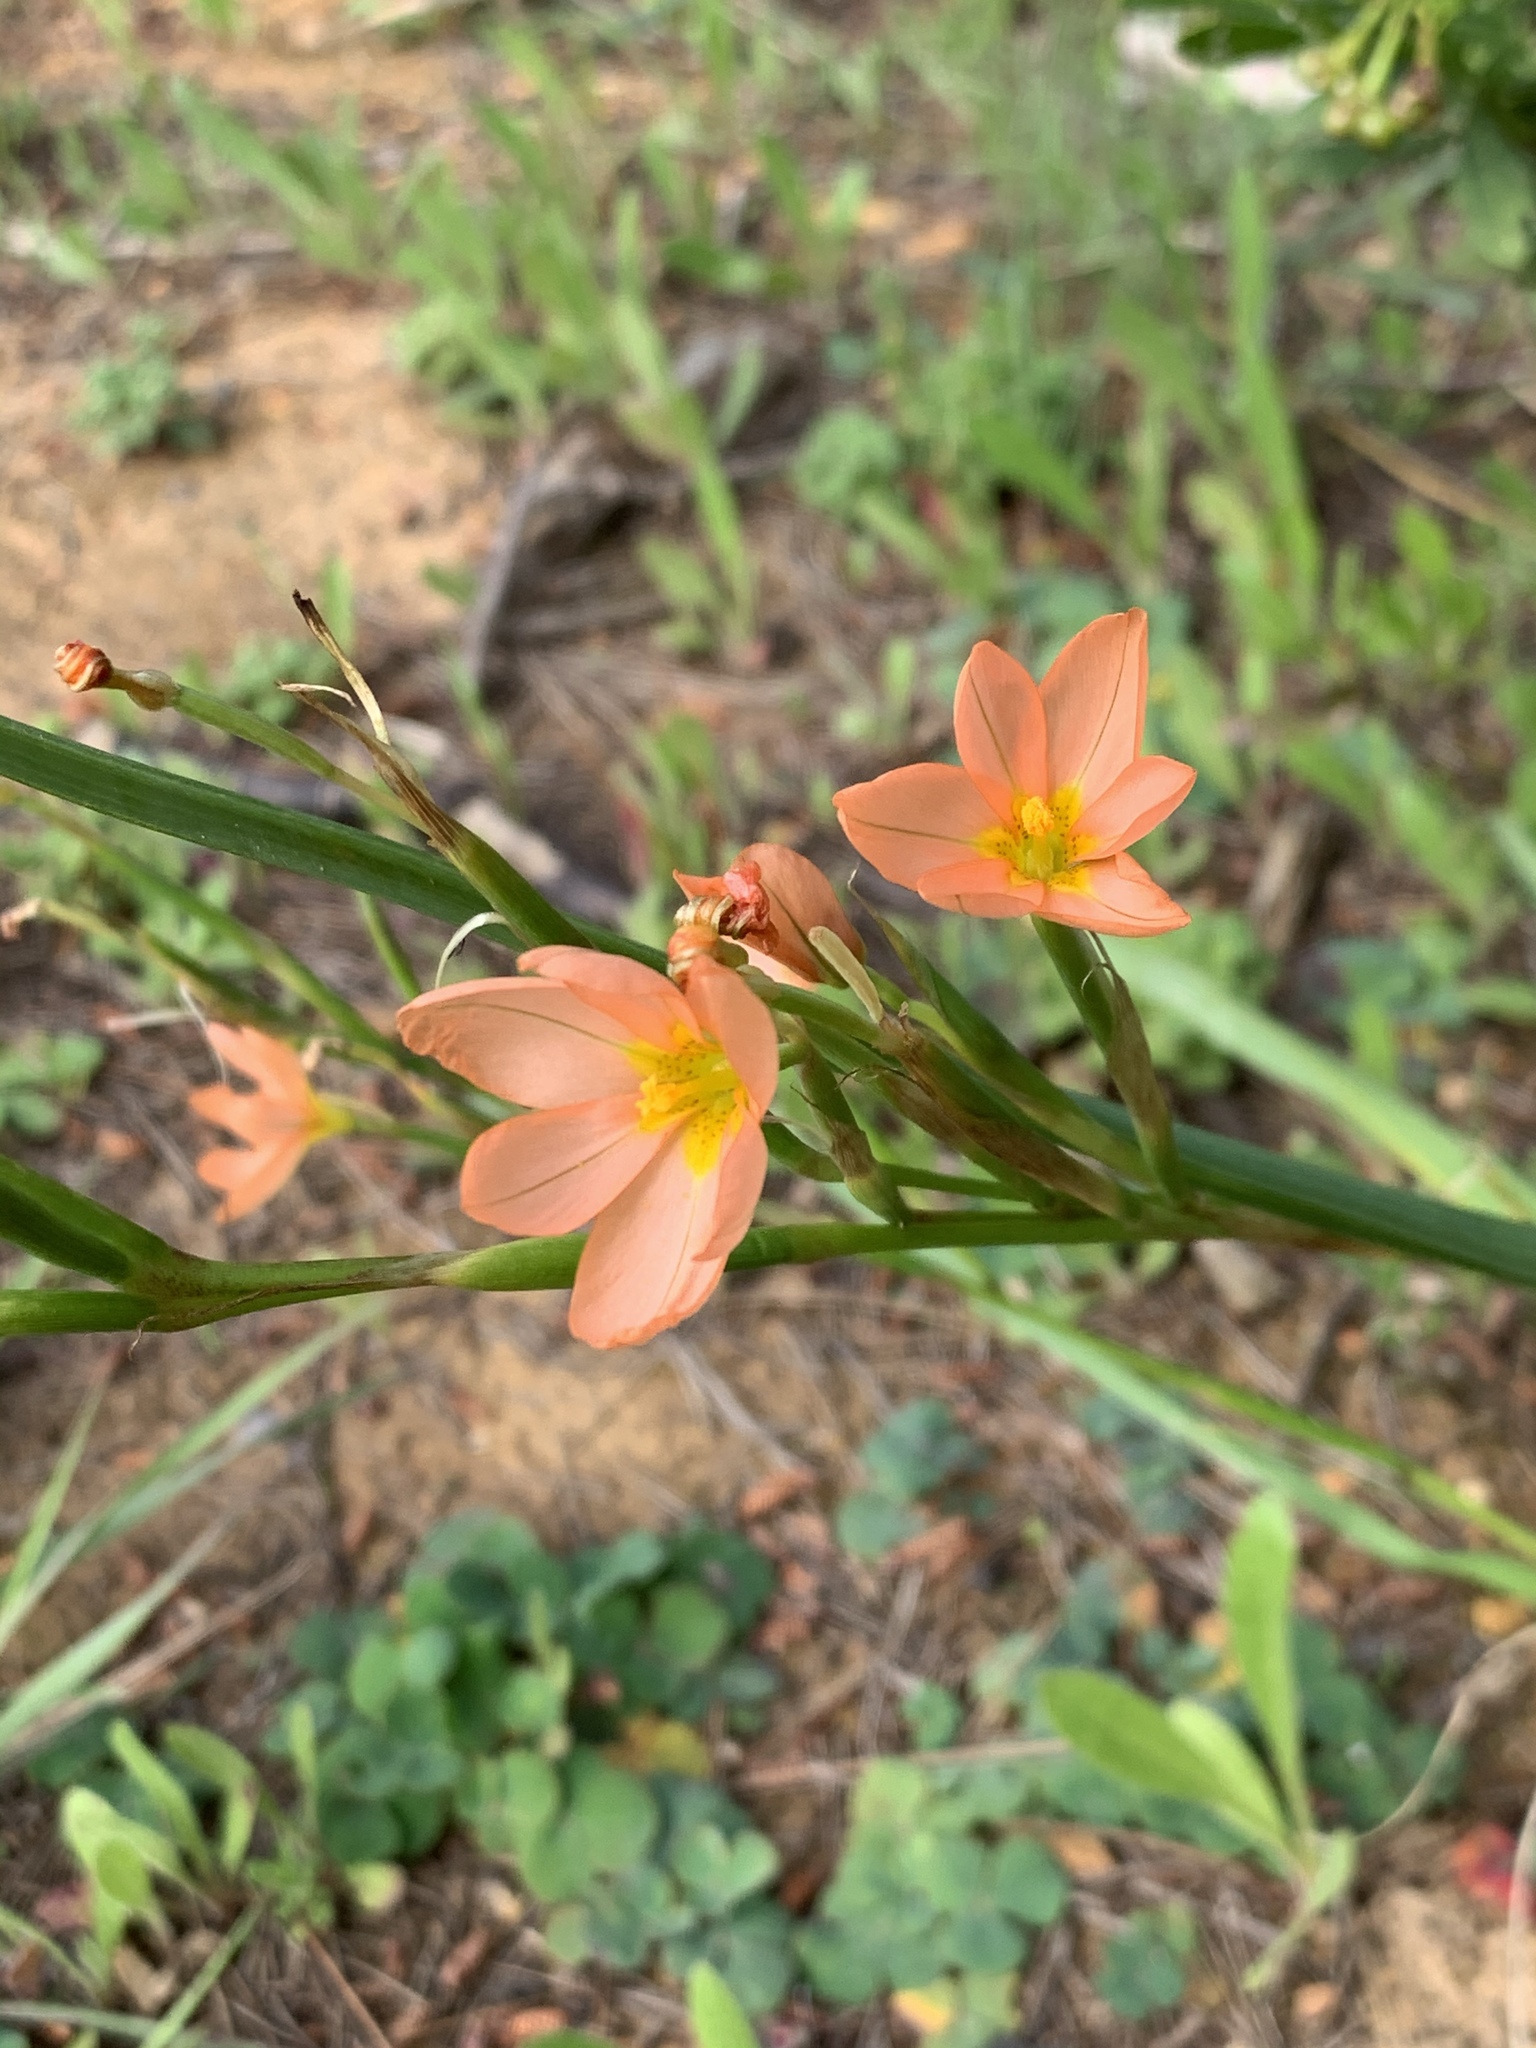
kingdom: Plantae
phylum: Tracheophyta
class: Liliopsida
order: Asparagales
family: Iridaceae
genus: Moraea
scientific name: Moraea miniata
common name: Two-leaf cape-tulip
